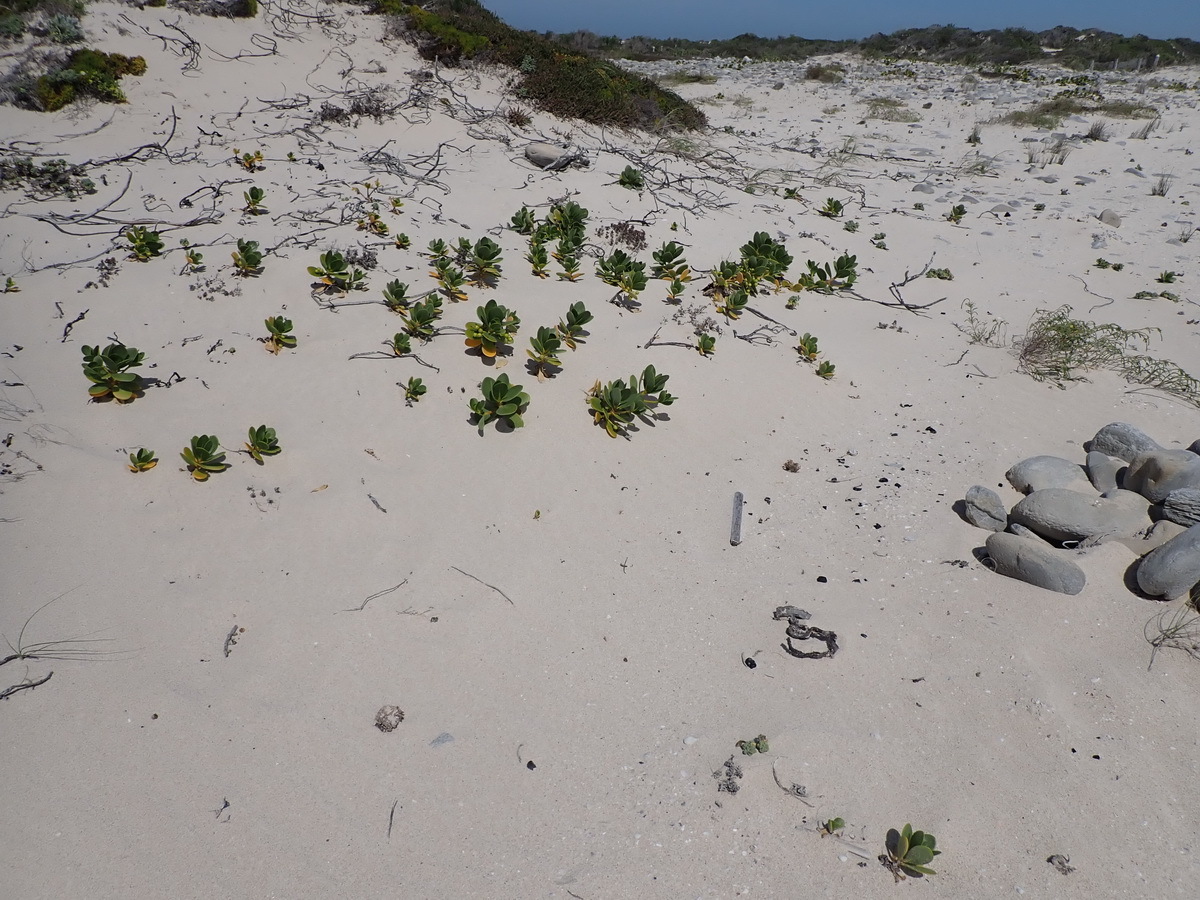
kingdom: Plantae
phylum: Tracheophyta
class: Magnoliopsida
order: Asterales
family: Goodeniaceae
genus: Scaevola
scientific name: Scaevola plumieri
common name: Gull feed
